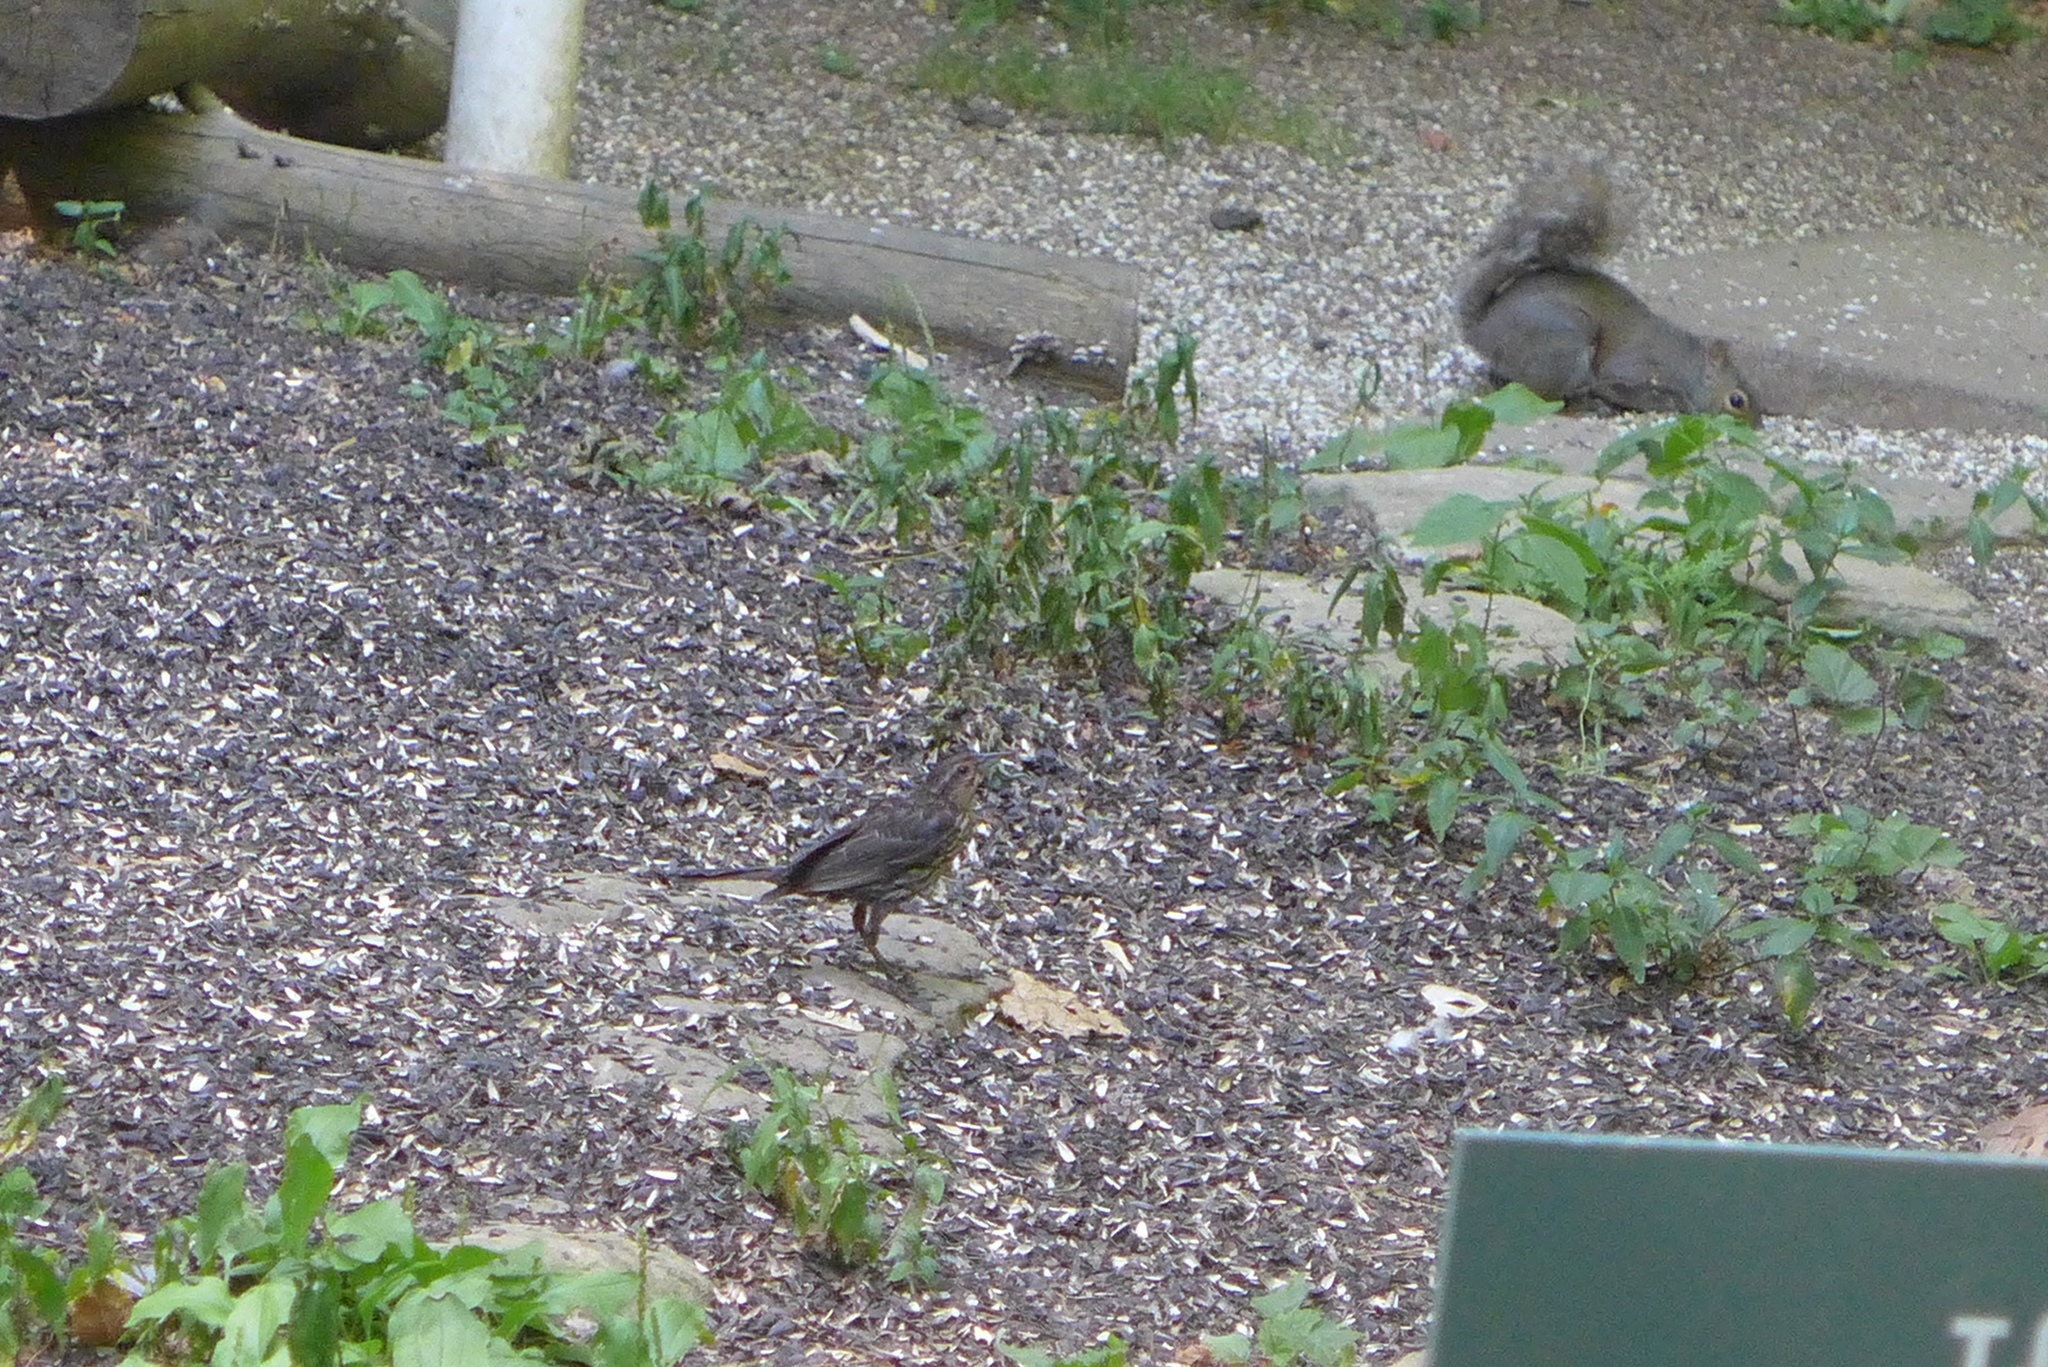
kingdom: Animalia
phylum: Chordata
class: Aves
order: Passeriformes
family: Icteridae
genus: Agelaius
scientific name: Agelaius phoeniceus
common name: Red-winged blackbird
